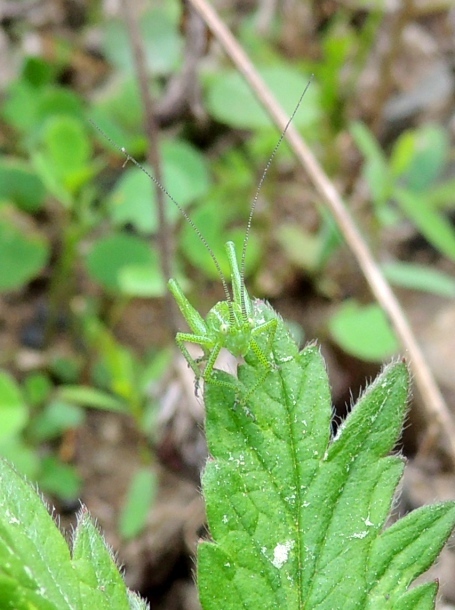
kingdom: Animalia
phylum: Arthropoda
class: Insecta
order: Orthoptera
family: Tettigoniidae
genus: Poecilimon
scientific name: Poecilimon intermedius
